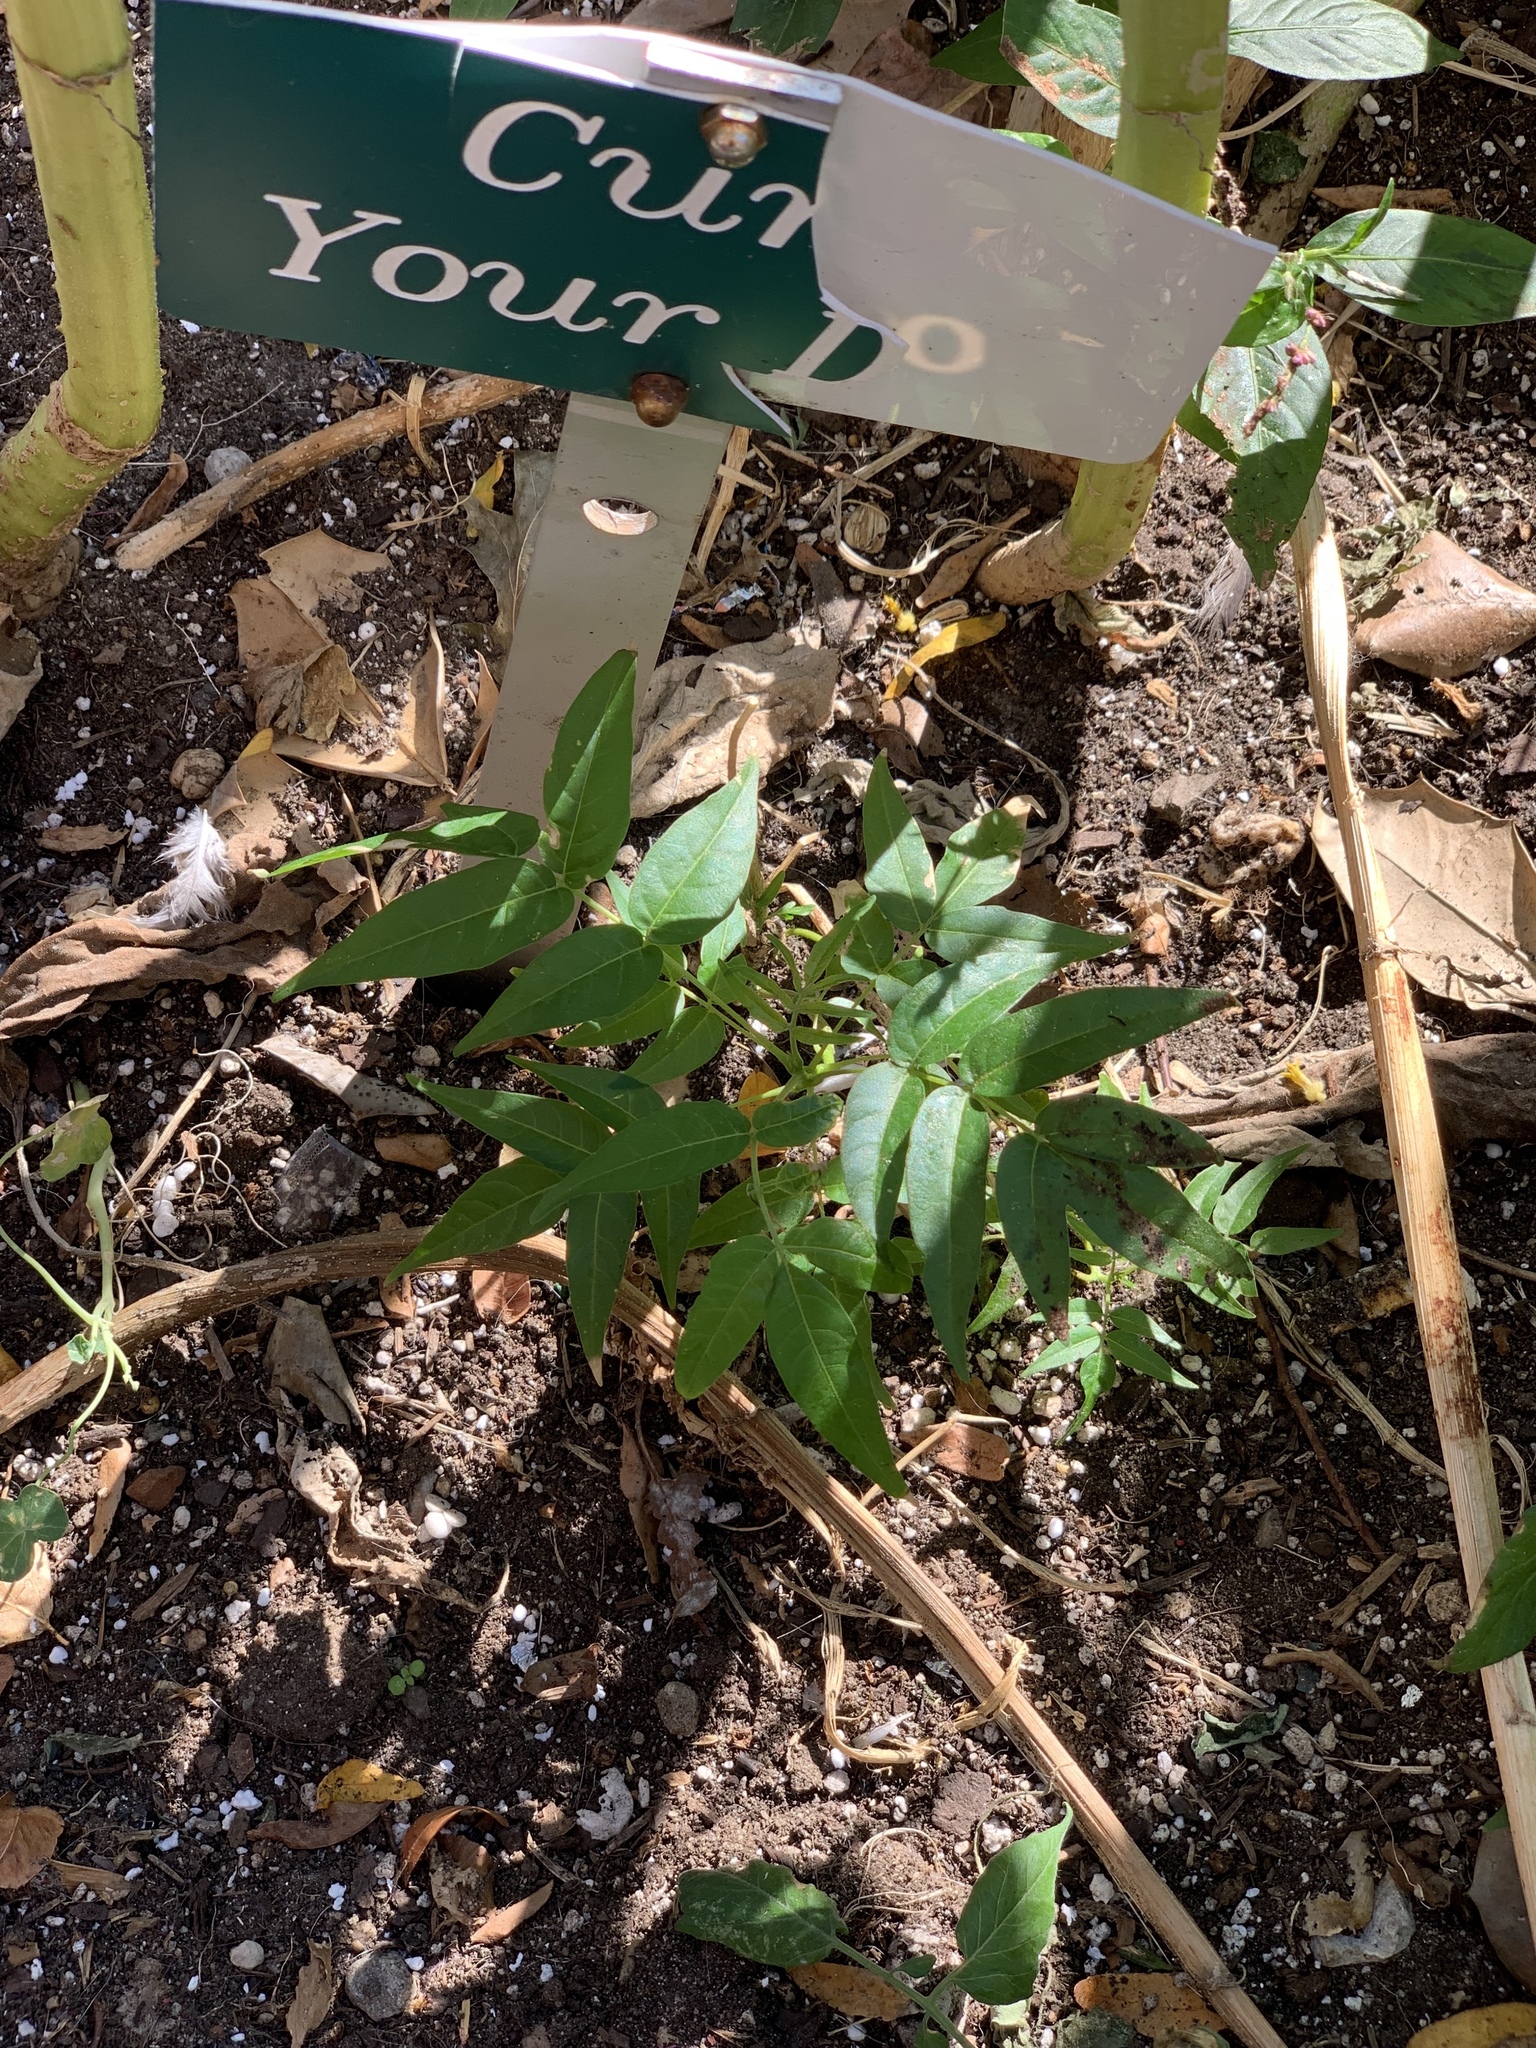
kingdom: Plantae
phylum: Tracheophyta
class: Magnoliopsida
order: Sapindales
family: Simaroubaceae
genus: Ailanthus
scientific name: Ailanthus altissima
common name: Tree-of-heaven
